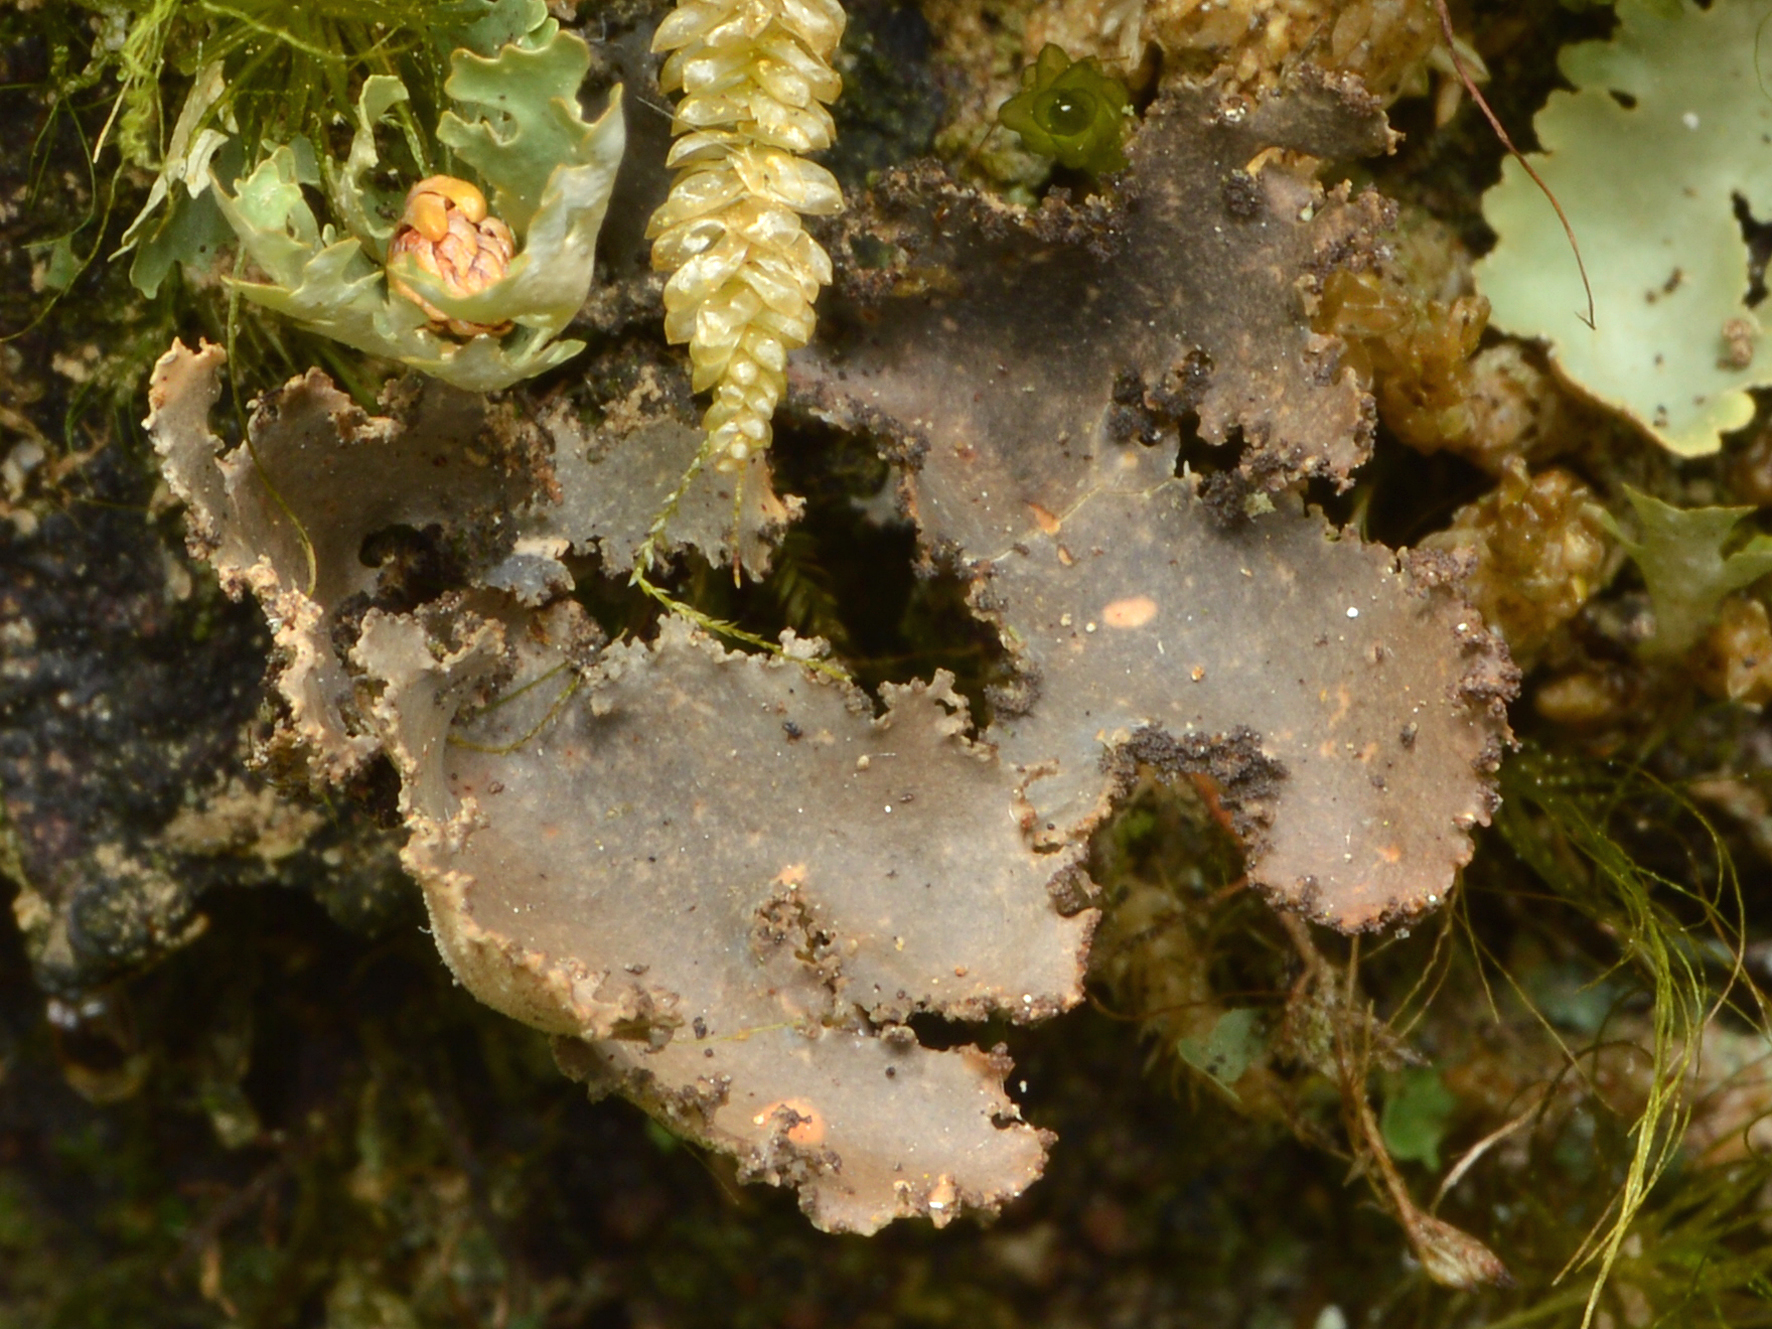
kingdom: Fungi
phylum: Ascomycota
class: Lecanoromycetes
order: Peltigerales
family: Lobariaceae
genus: Sticta
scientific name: Sticta caliginosa
